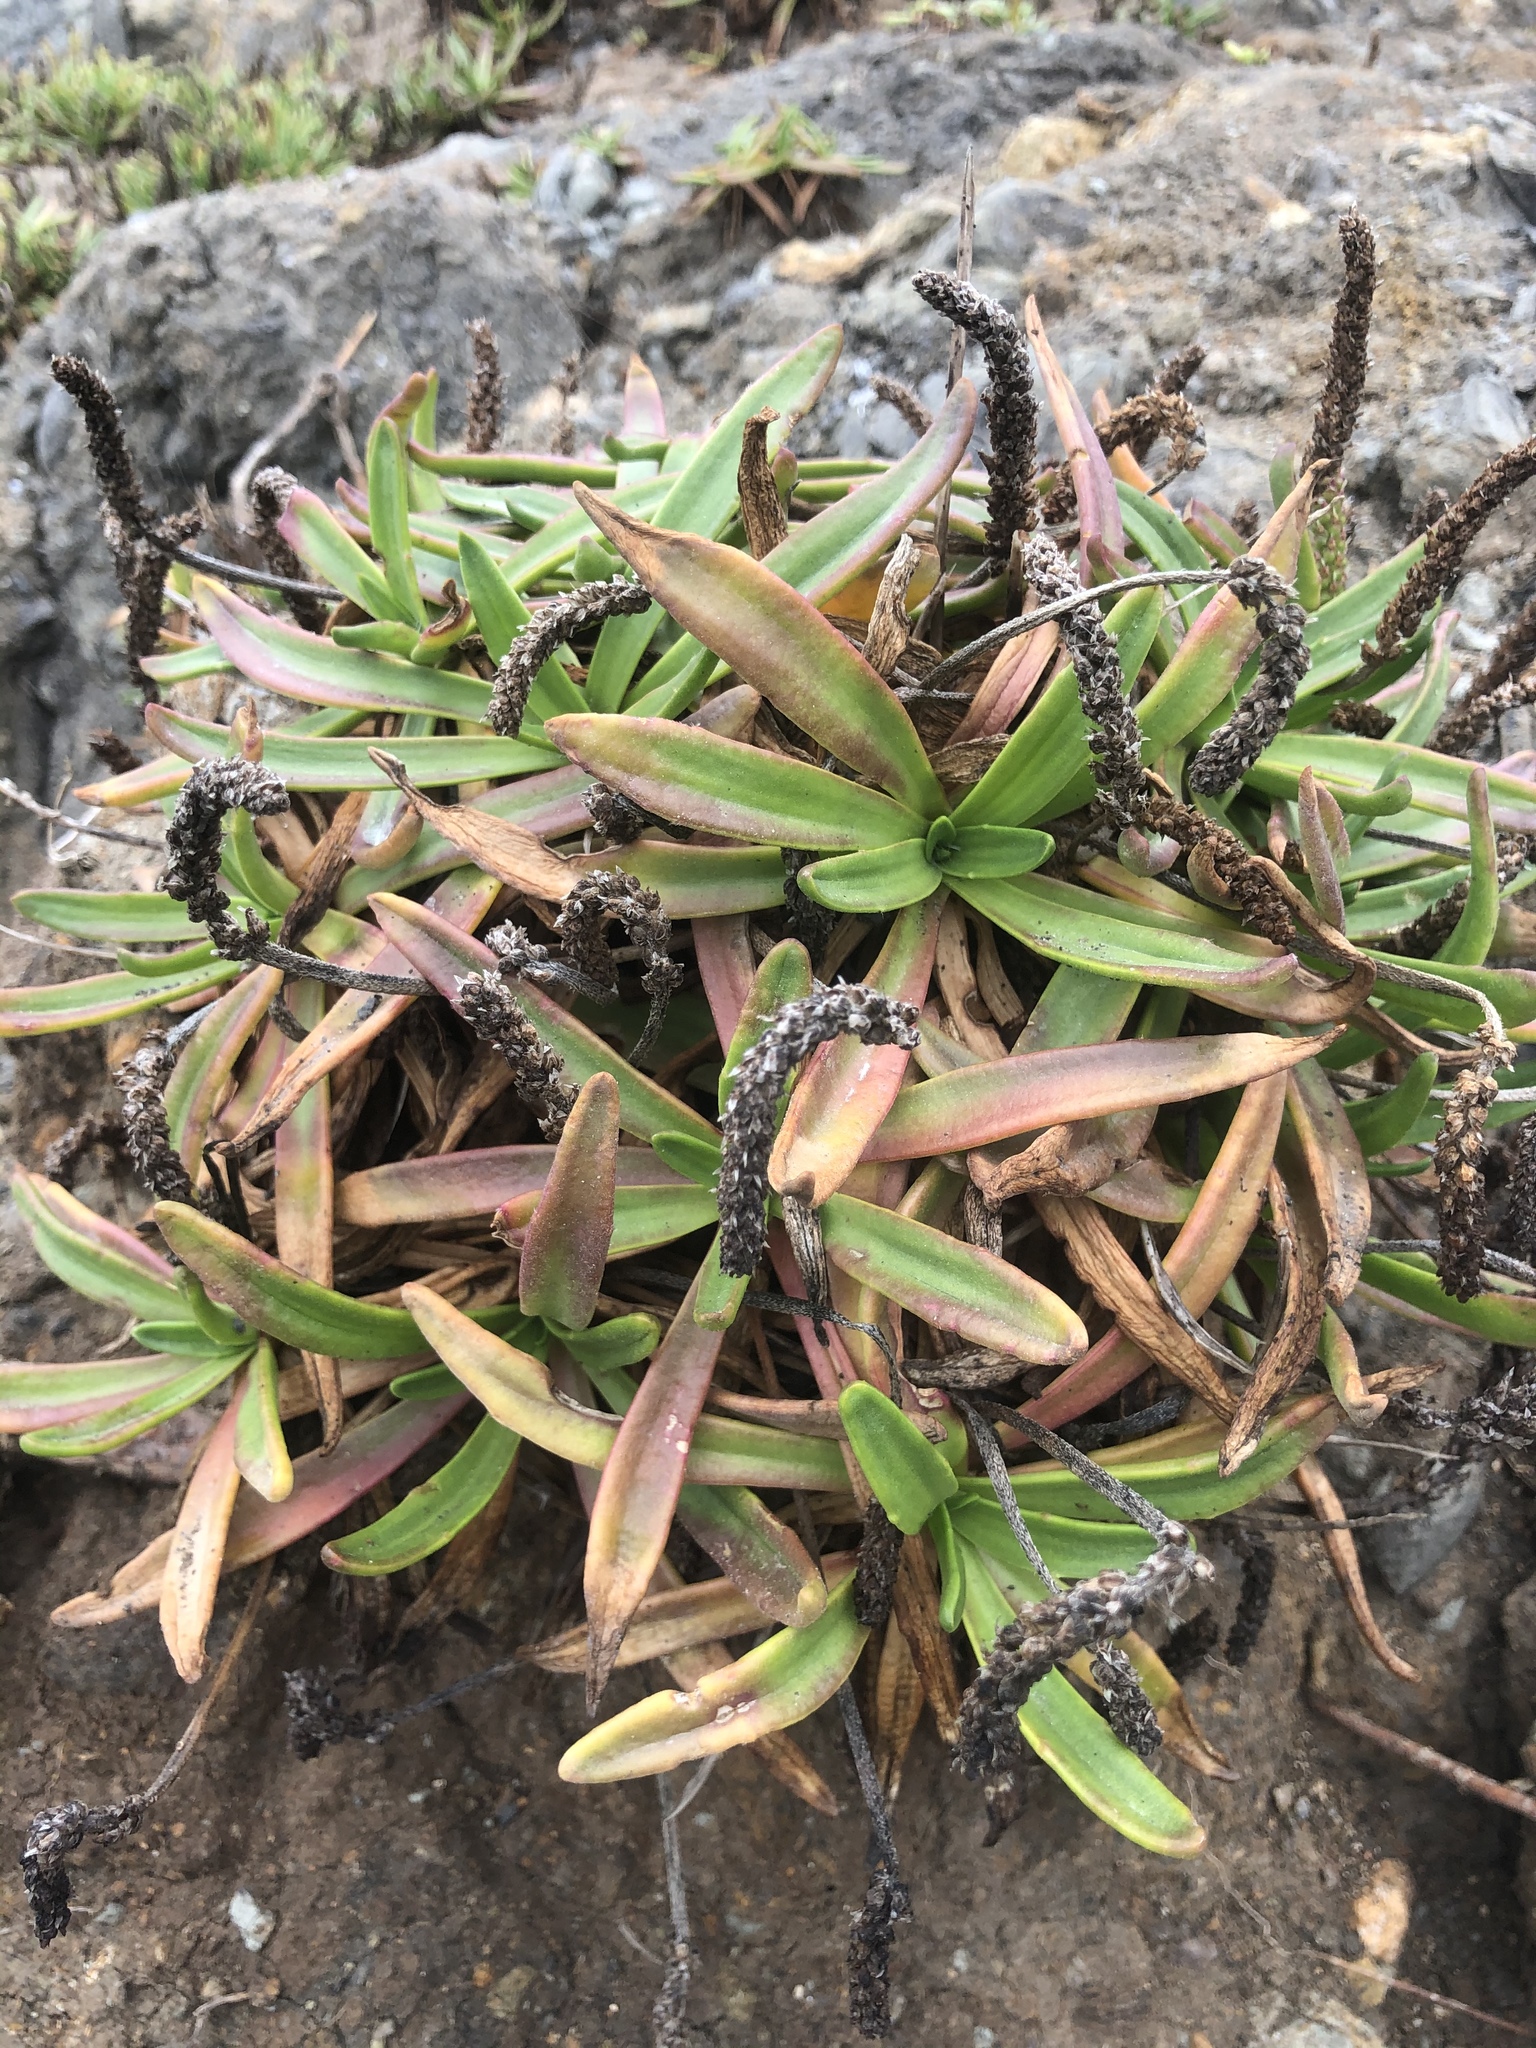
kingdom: Plantae
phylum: Tracheophyta
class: Magnoliopsida
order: Lamiales
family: Plantaginaceae
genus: Plantago
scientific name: Plantago maritima
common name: Sea plantain
